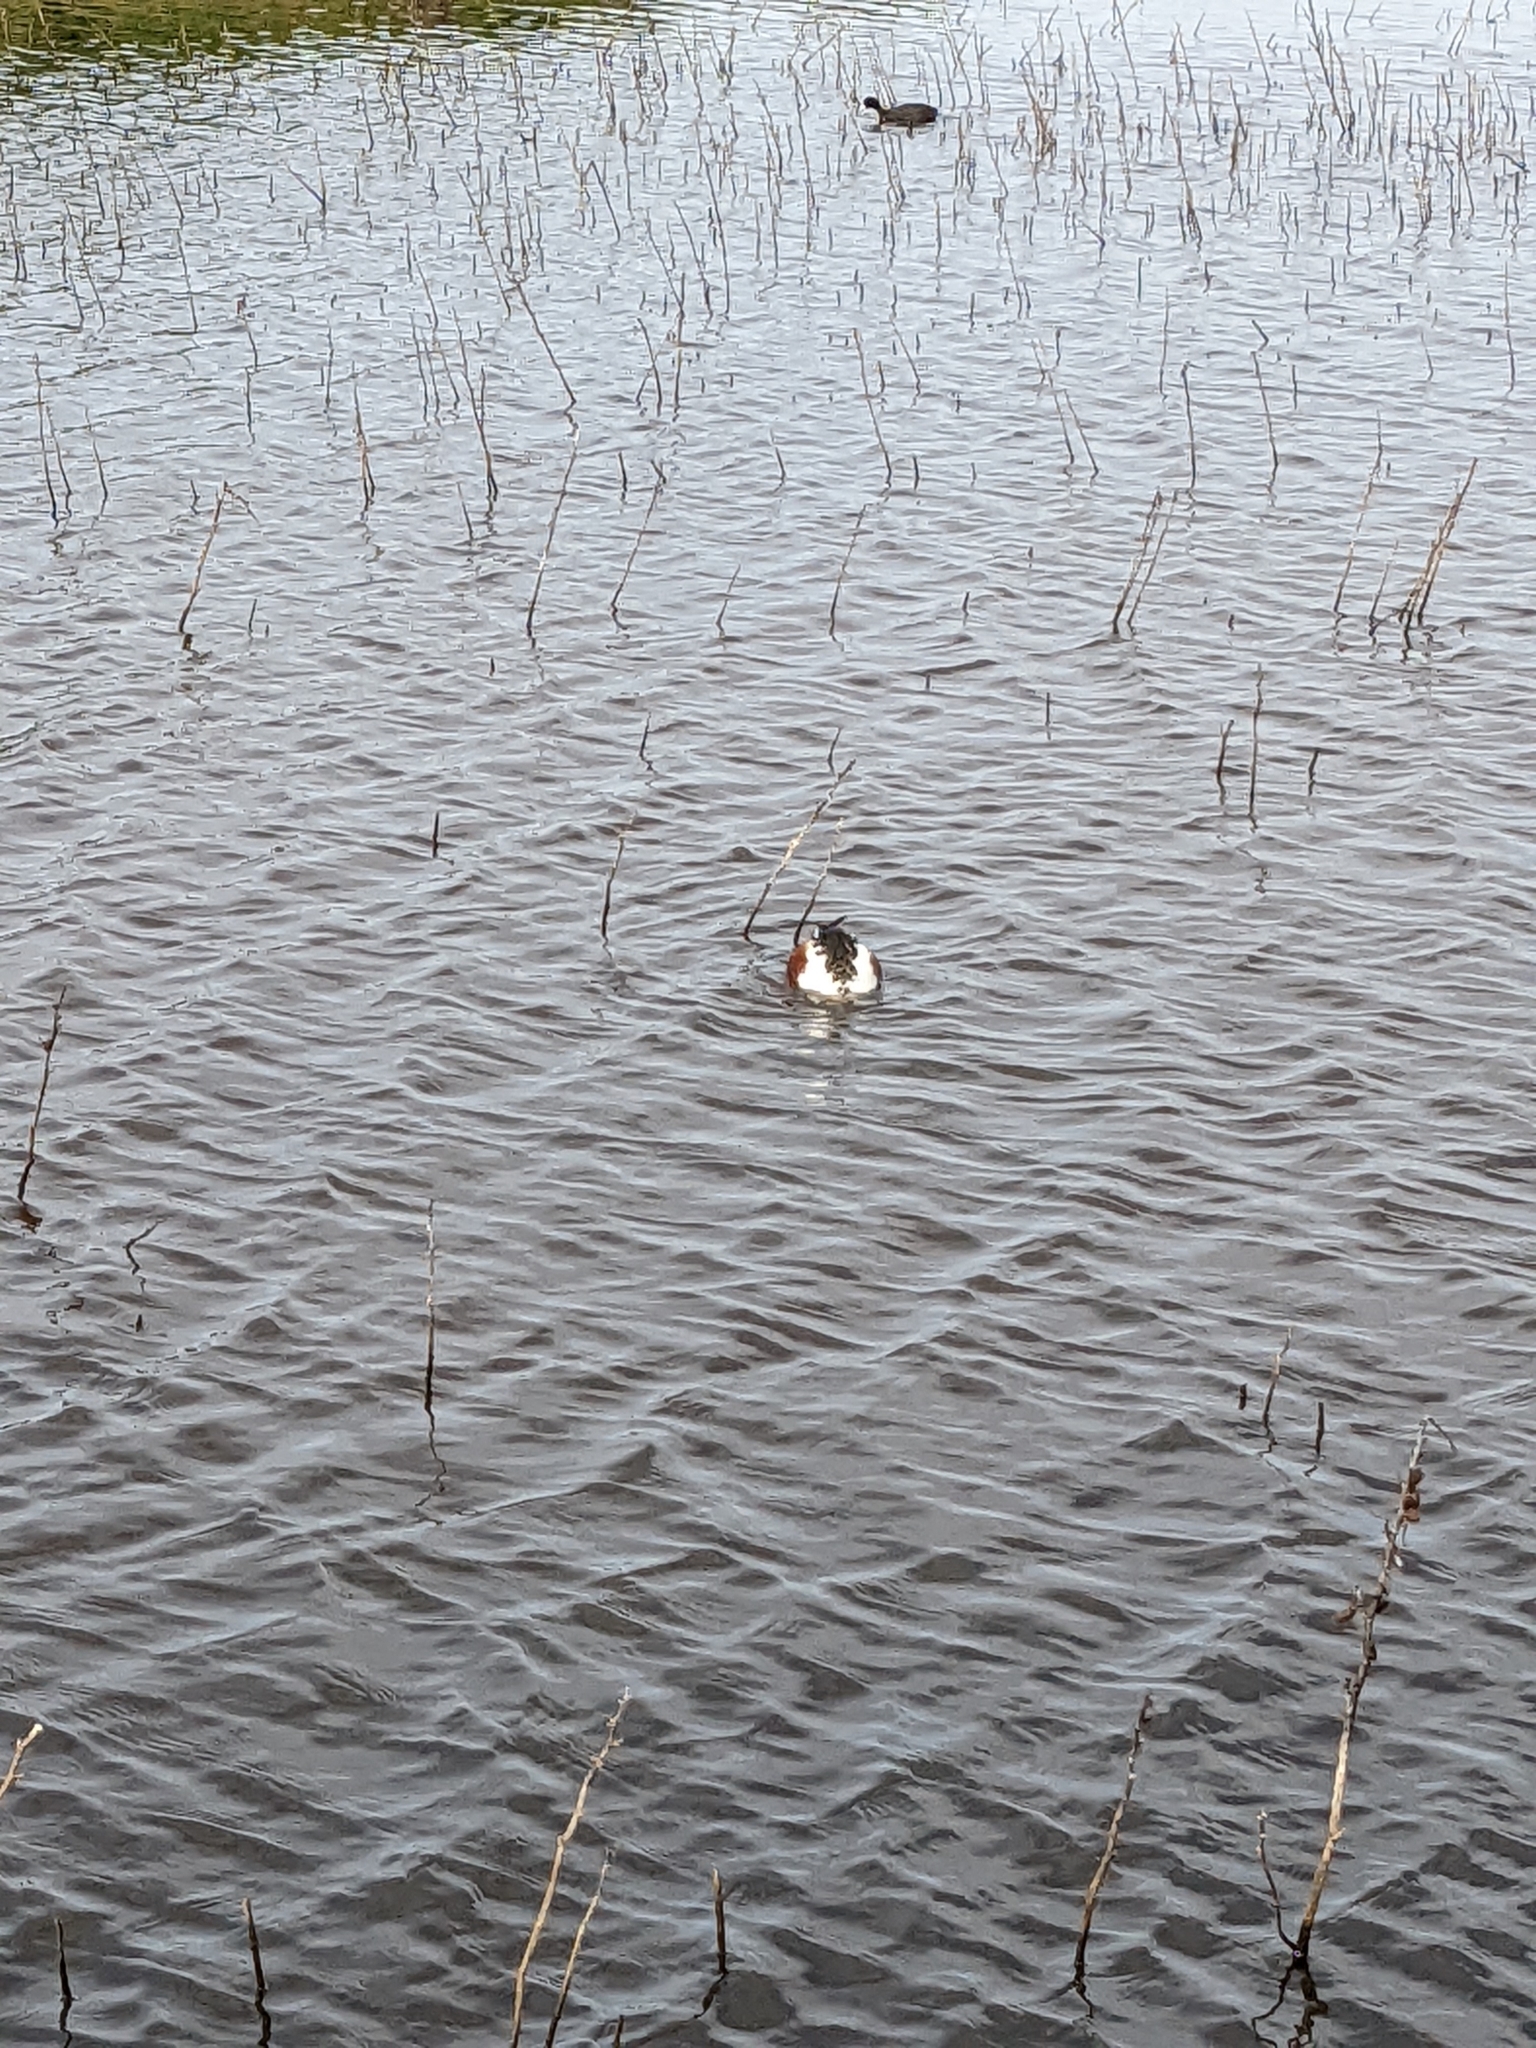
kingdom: Animalia
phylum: Chordata
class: Aves
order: Anseriformes
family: Anatidae
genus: Anas
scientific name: Anas acuta
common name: Northern pintail
